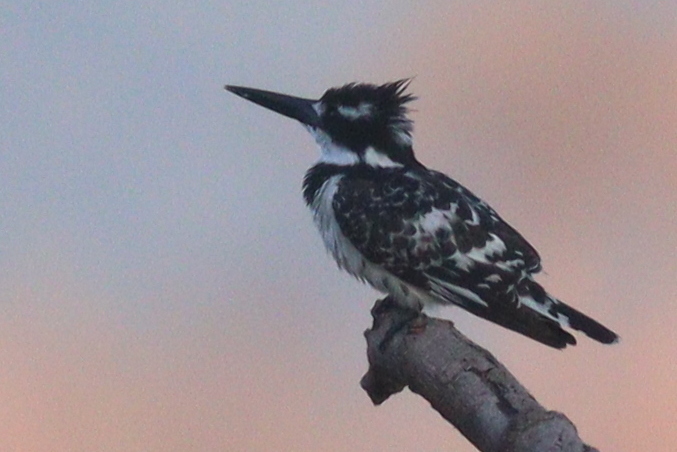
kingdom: Animalia
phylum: Chordata
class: Aves
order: Coraciiformes
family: Alcedinidae
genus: Ceryle
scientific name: Ceryle rudis
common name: Pied kingfisher
